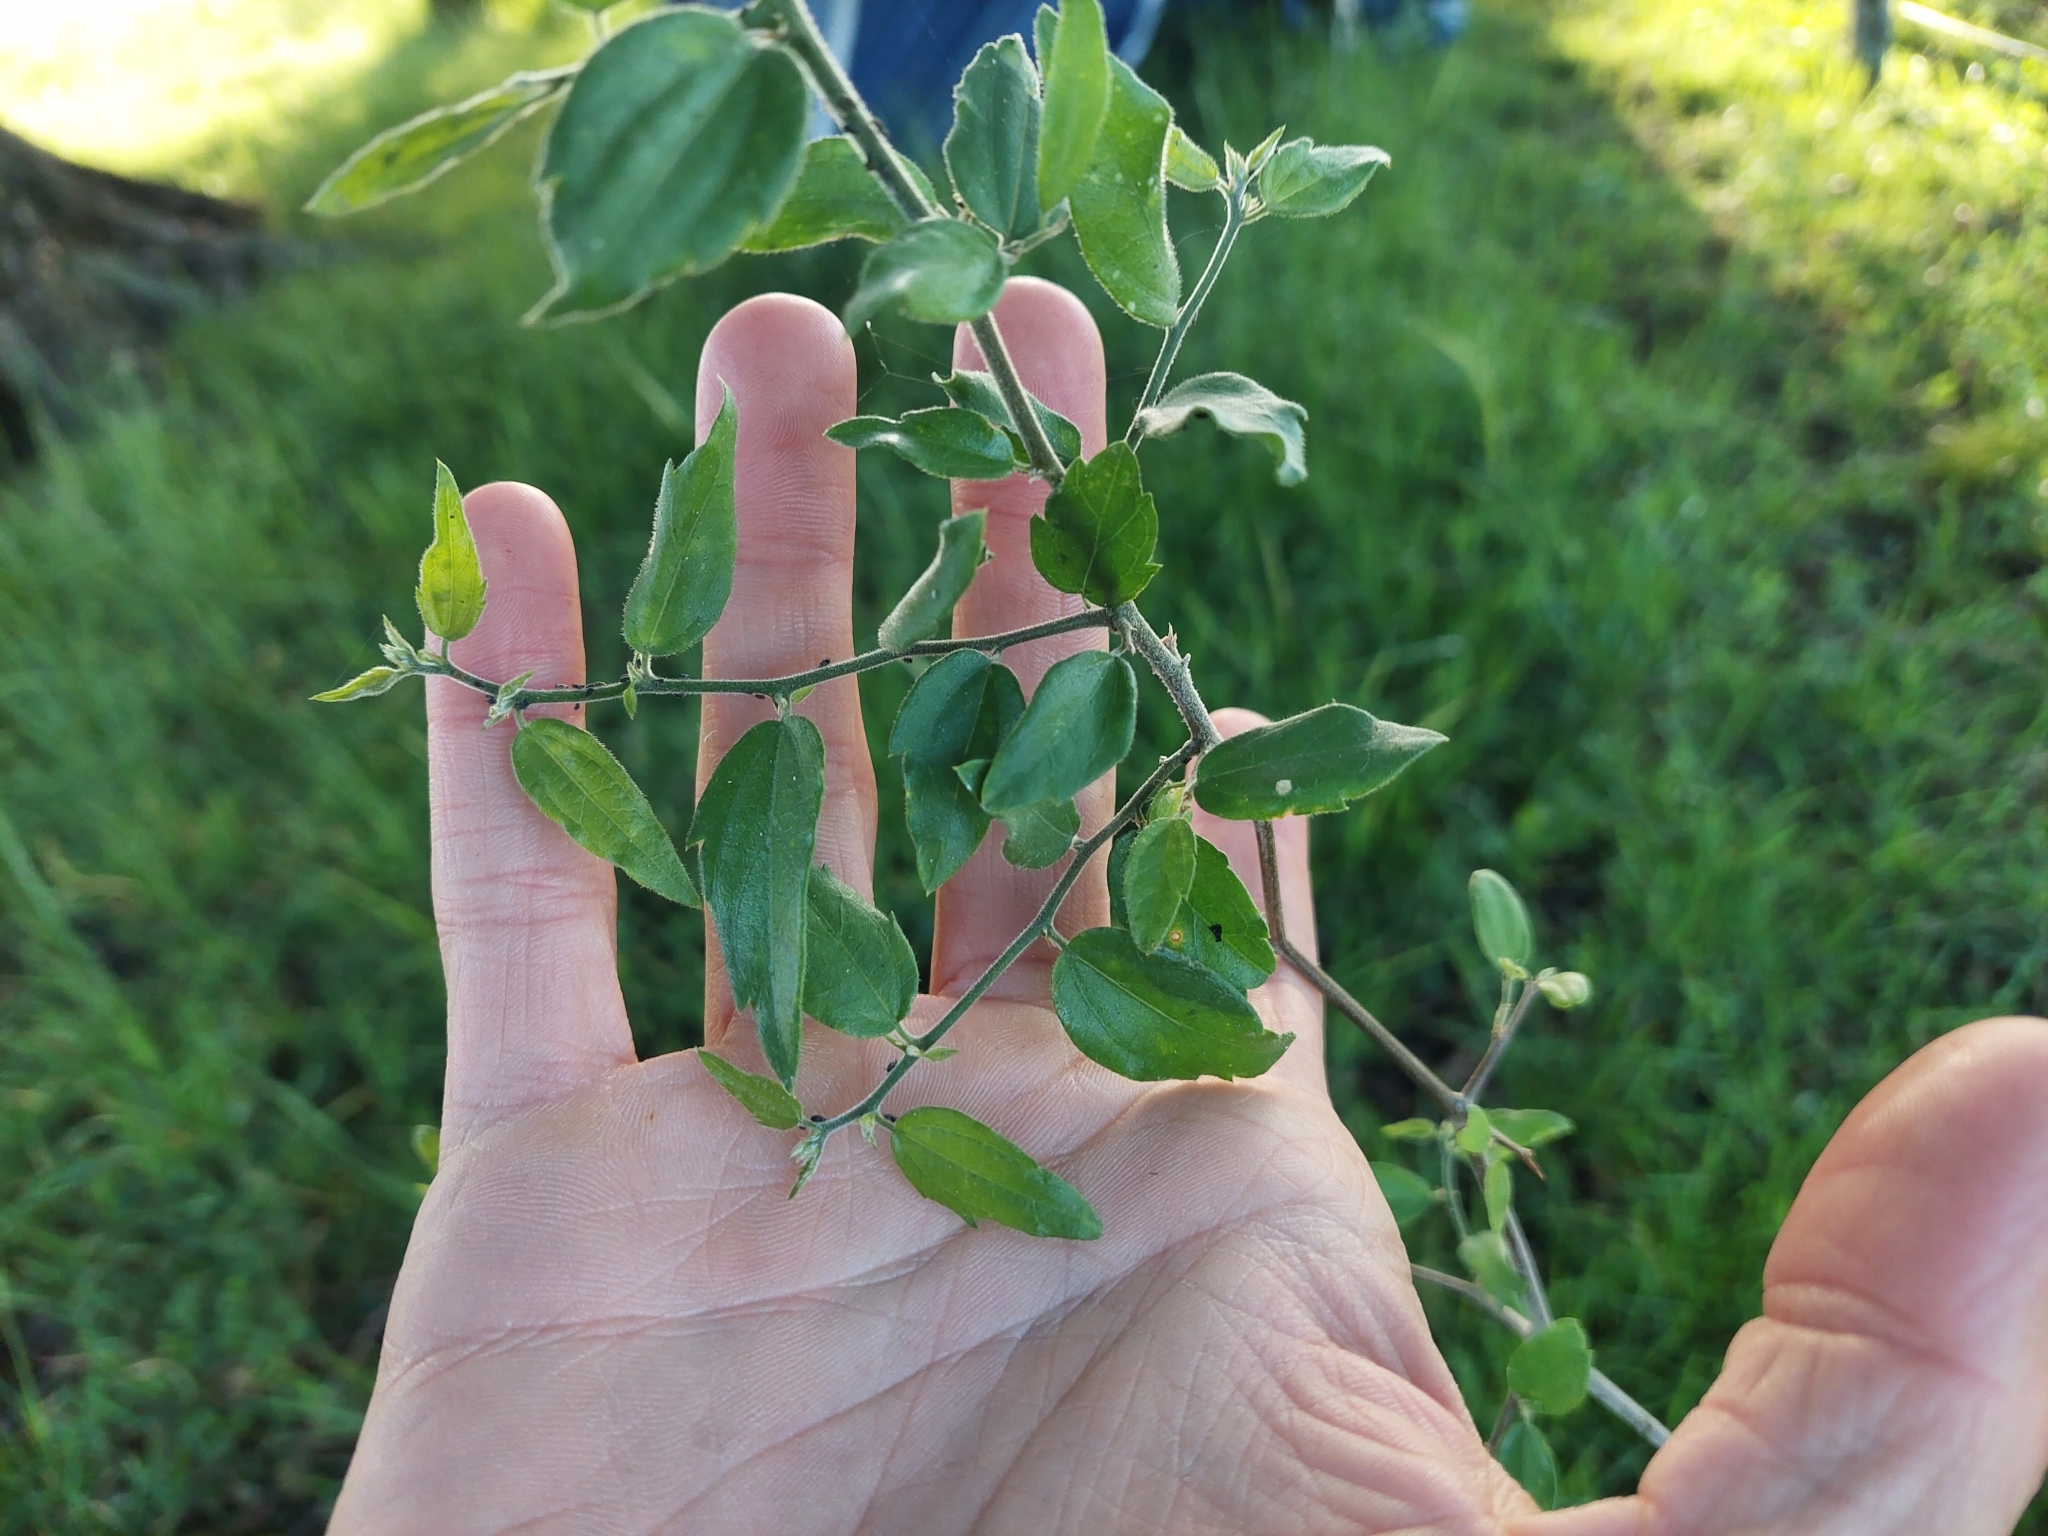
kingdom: Plantae
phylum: Tracheophyta
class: Magnoliopsida
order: Rosales
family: Cannabaceae
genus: Celtis
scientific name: Celtis pallida
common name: Desert hackberry
